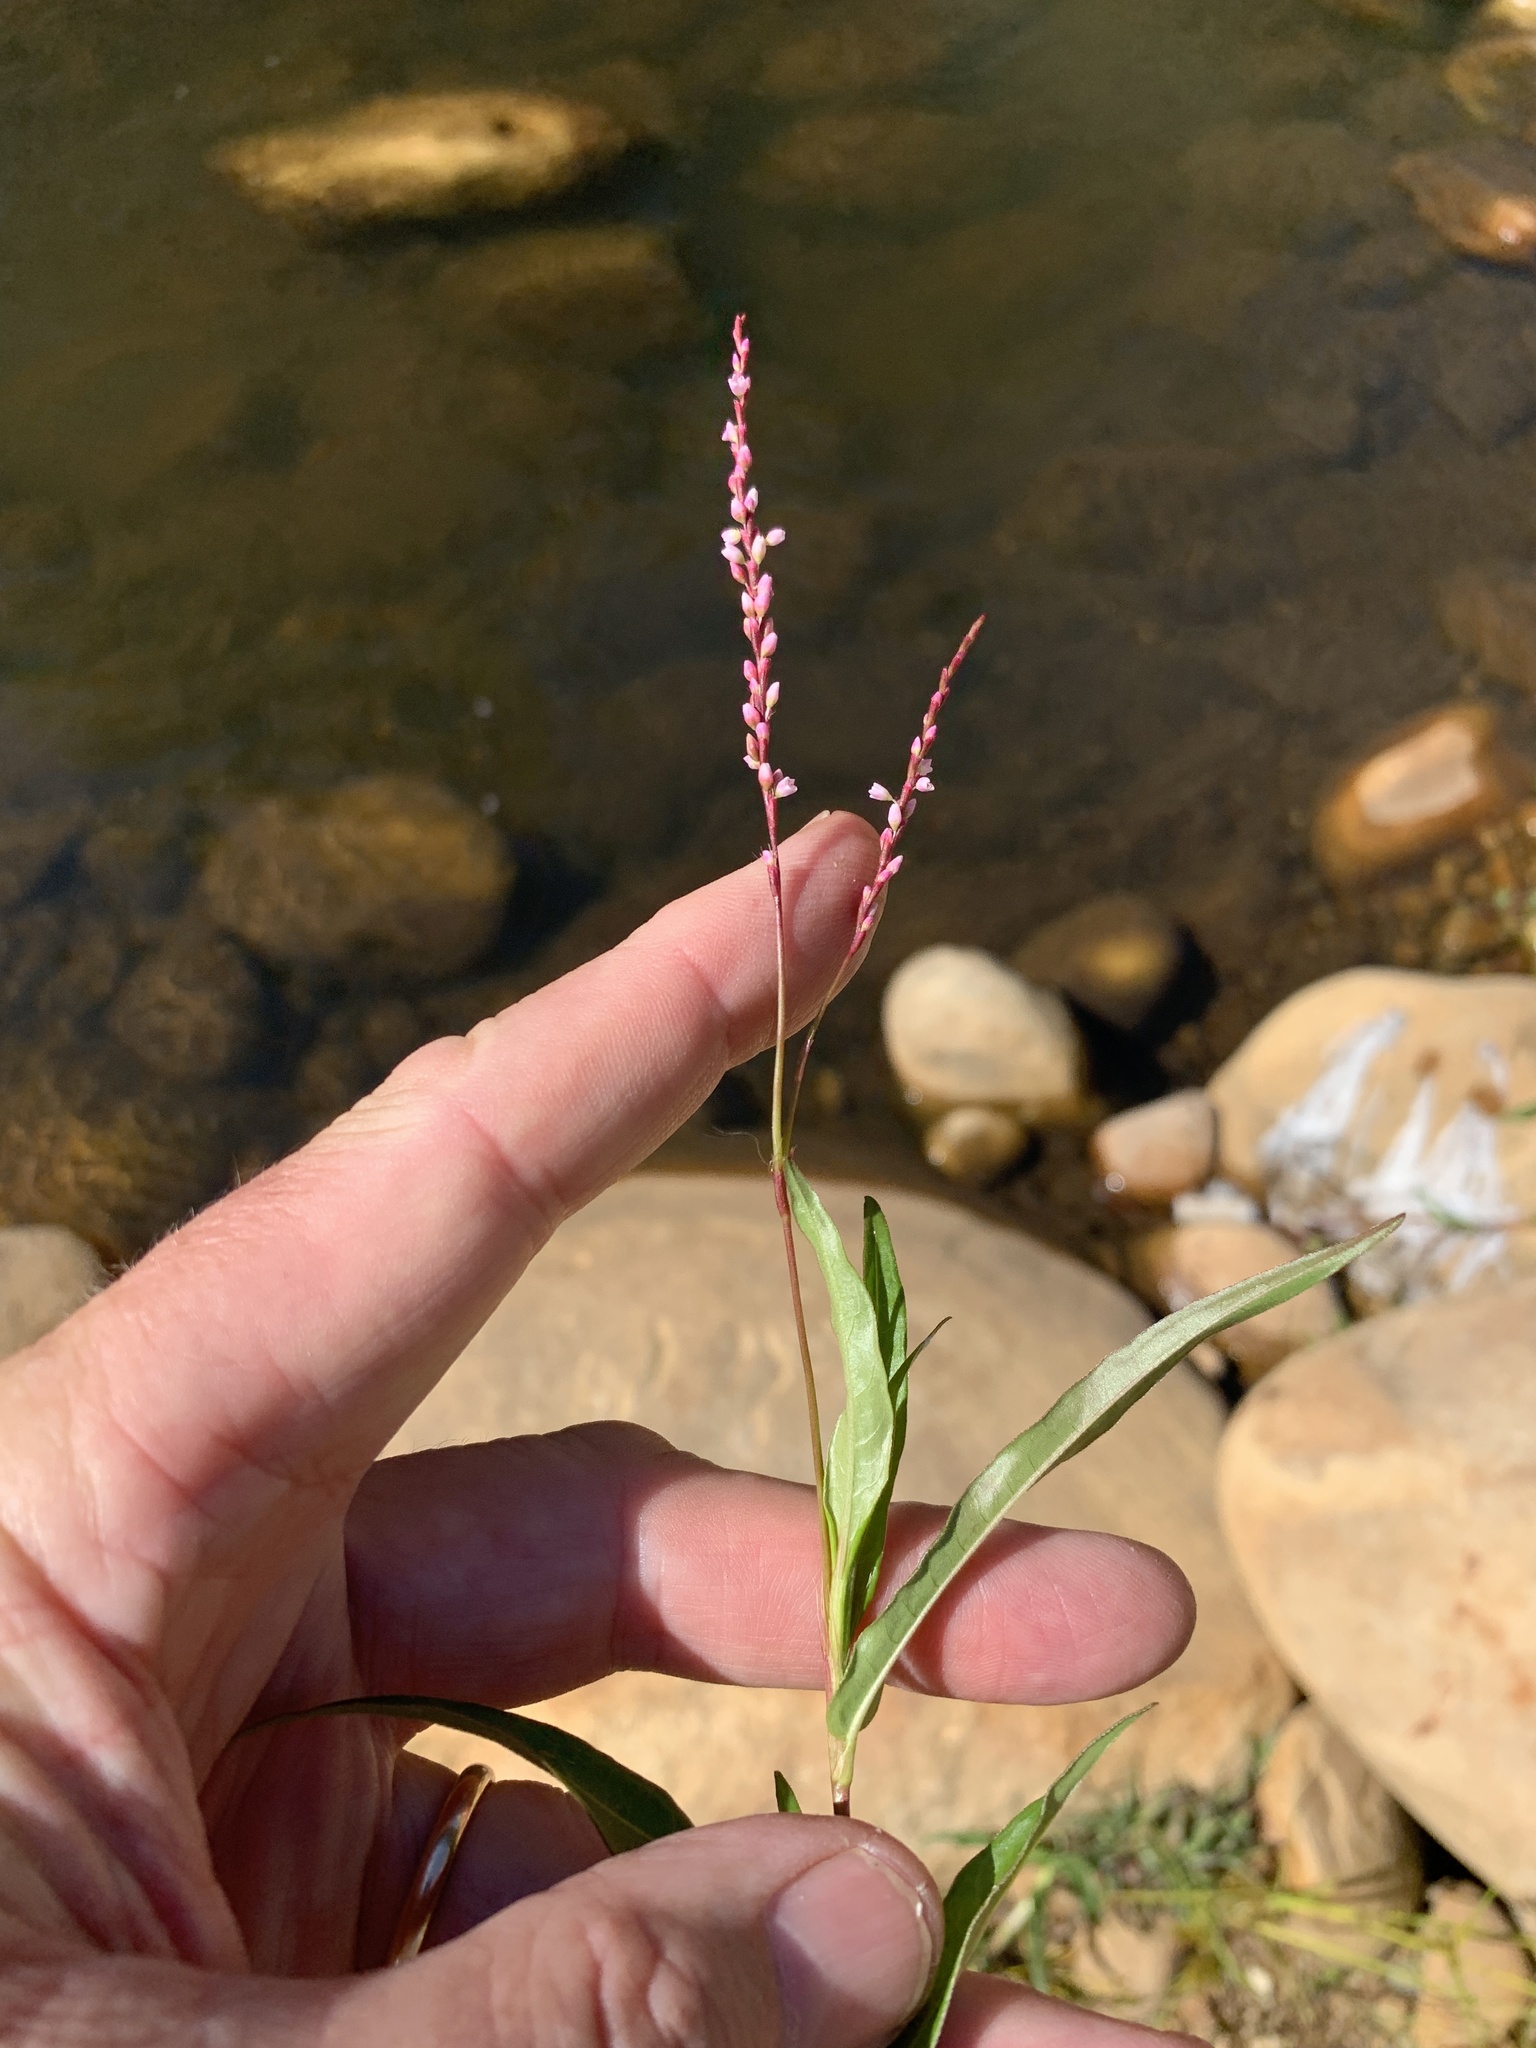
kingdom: Plantae
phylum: Tracheophyta
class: Magnoliopsida
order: Caryophyllales
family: Polygonaceae
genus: Persicaria
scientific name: Persicaria decipiens
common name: Willow-weed
